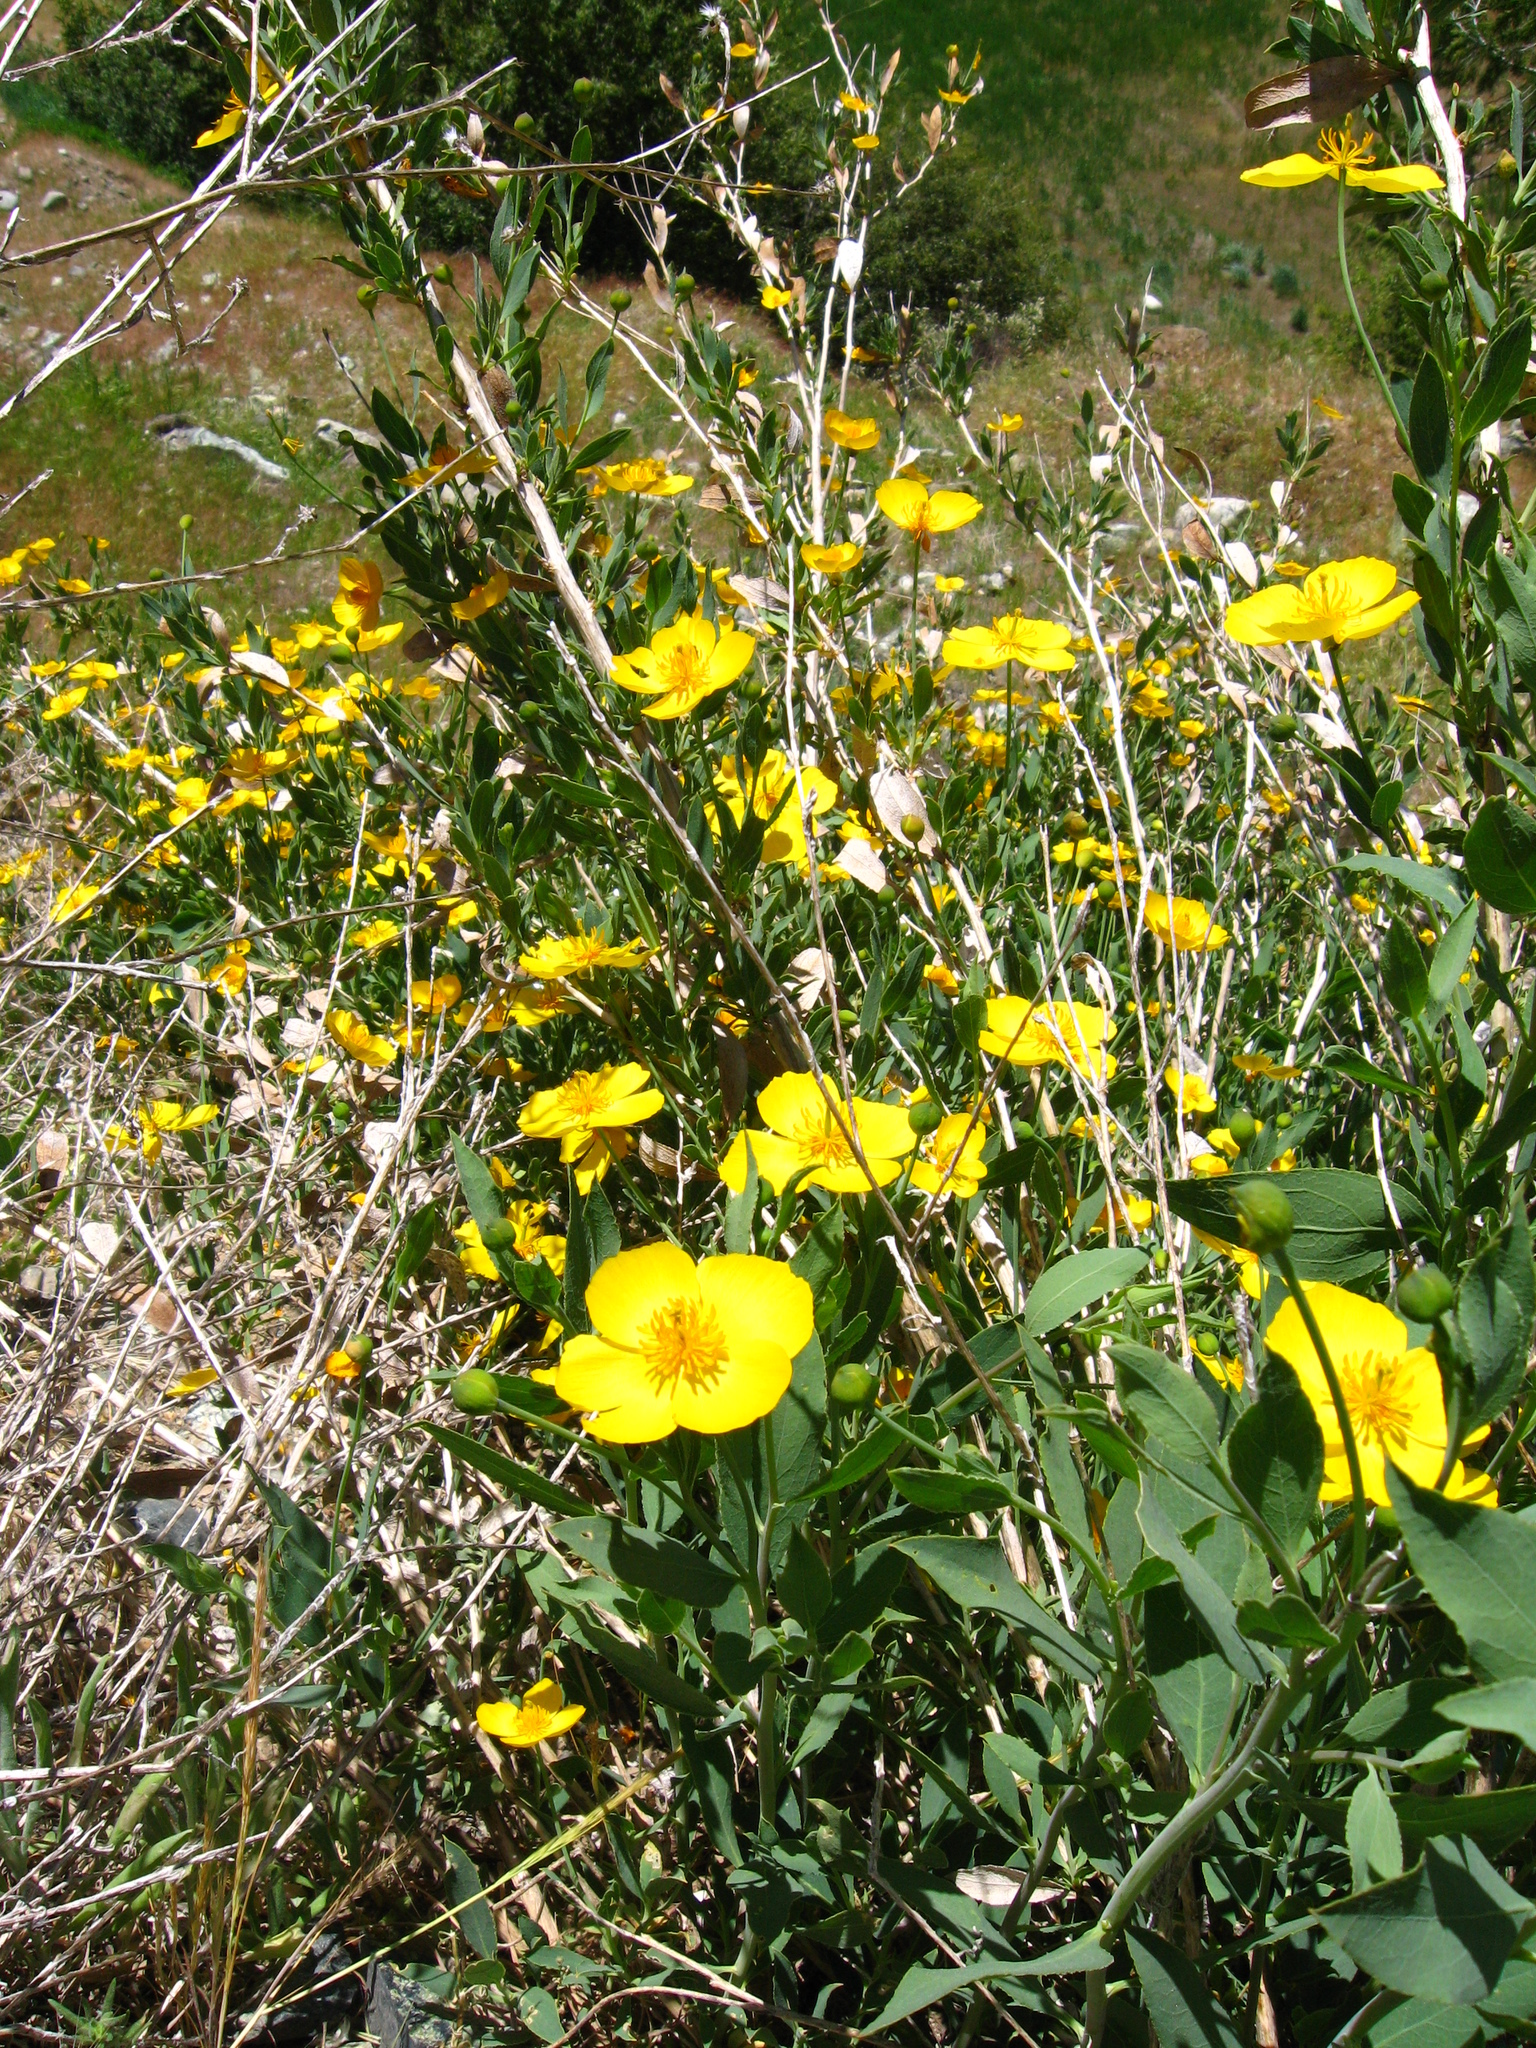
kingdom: Plantae
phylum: Tracheophyta
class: Magnoliopsida
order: Ranunculales
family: Papaveraceae
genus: Dendromecon
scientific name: Dendromecon rigida
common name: Tree poppy
